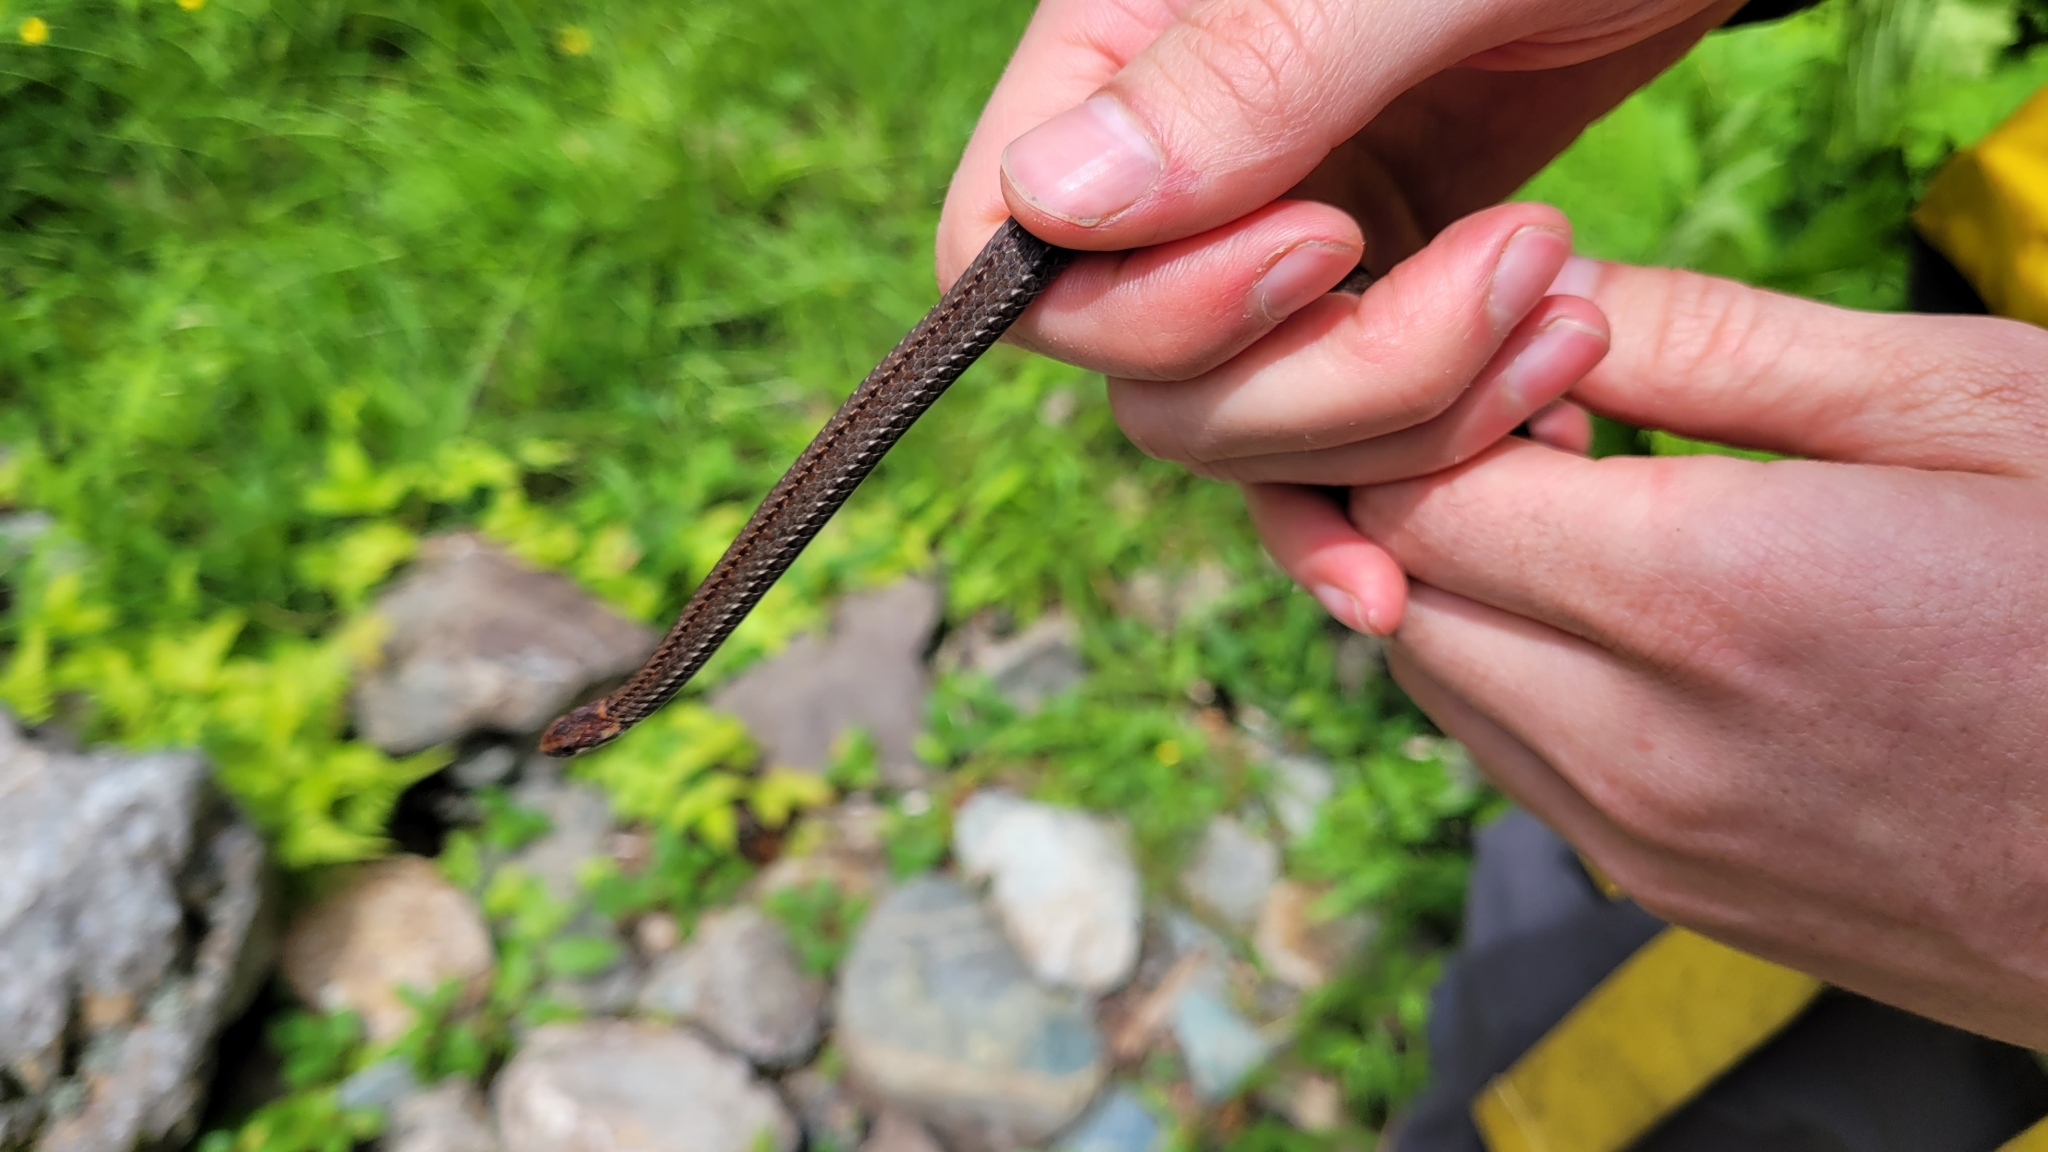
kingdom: Animalia
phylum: Chordata
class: Squamata
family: Colubridae
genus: Storeria
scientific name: Storeria occipitomaculata
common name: Redbelly snake
